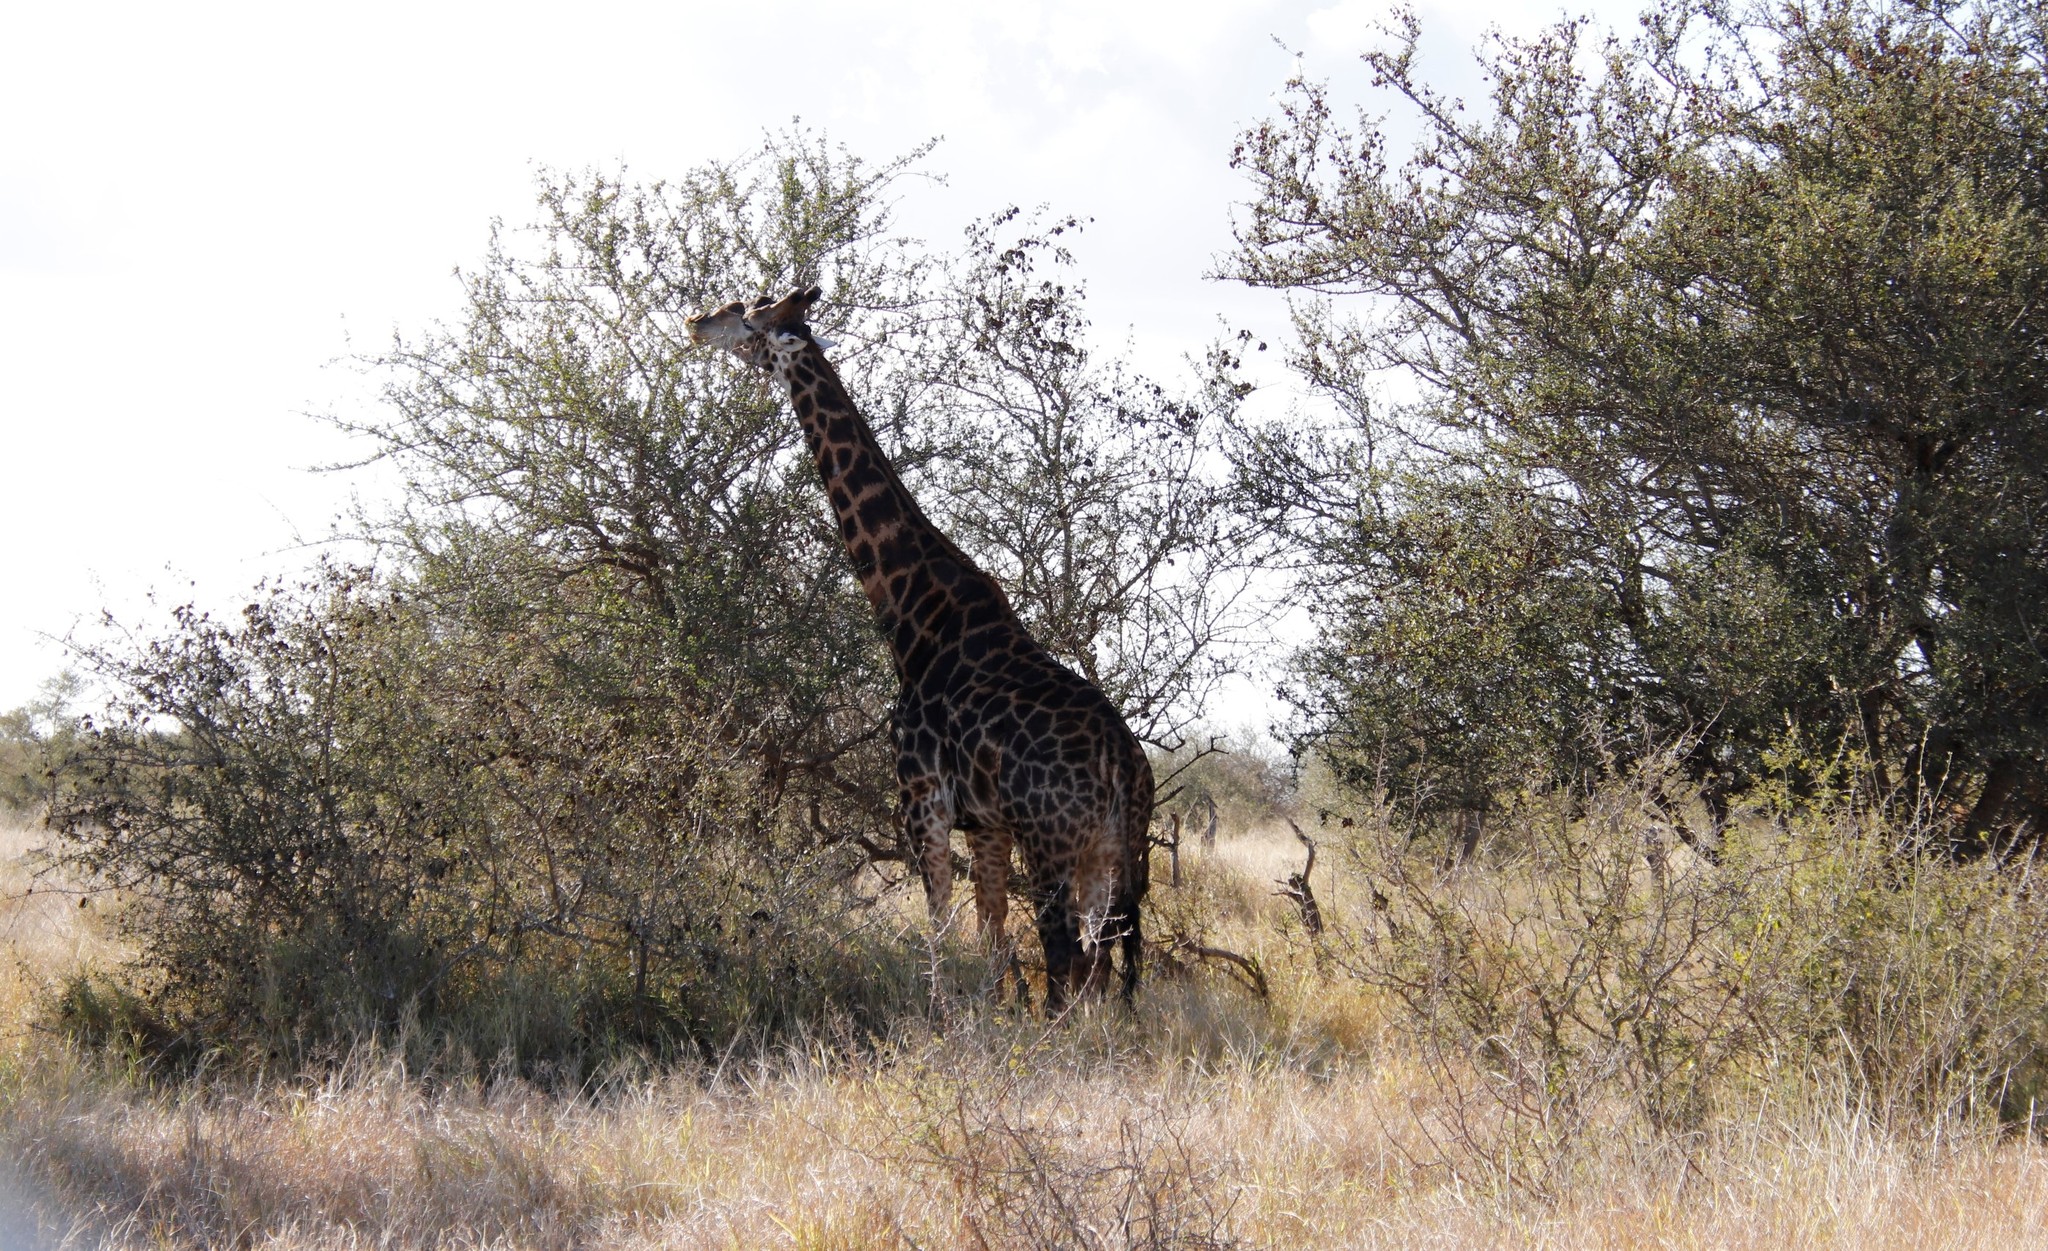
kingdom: Animalia
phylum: Chordata
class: Mammalia
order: Artiodactyla
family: Giraffidae
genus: Giraffa
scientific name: Giraffa giraffa
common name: Southern giraffe
